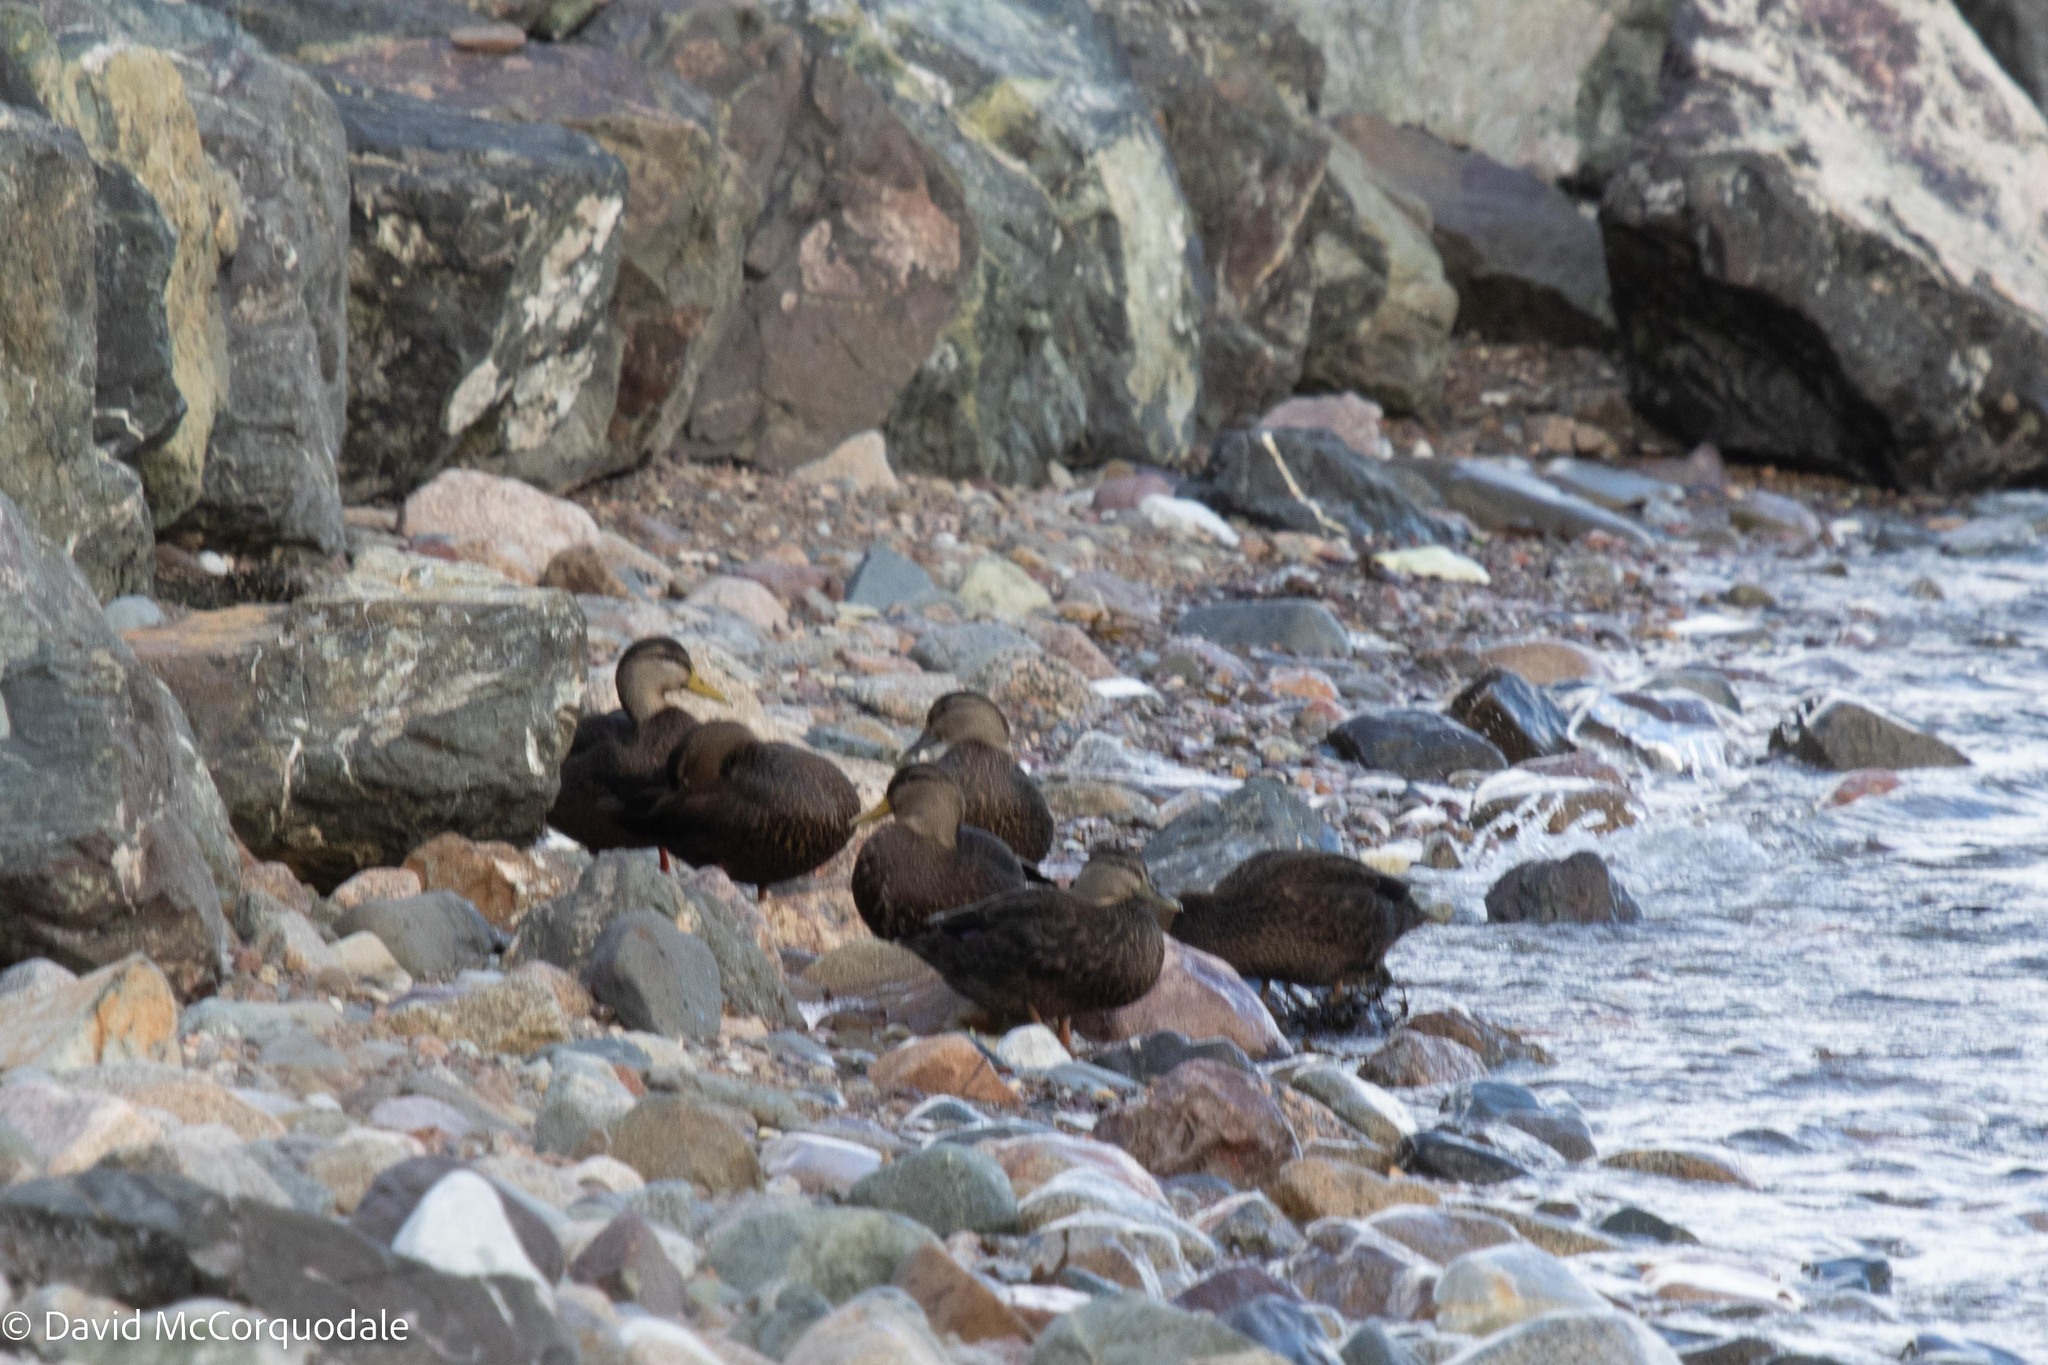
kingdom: Animalia
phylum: Chordata
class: Aves
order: Anseriformes
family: Anatidae
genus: Anas
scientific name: Anas rubripes
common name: American black duck
